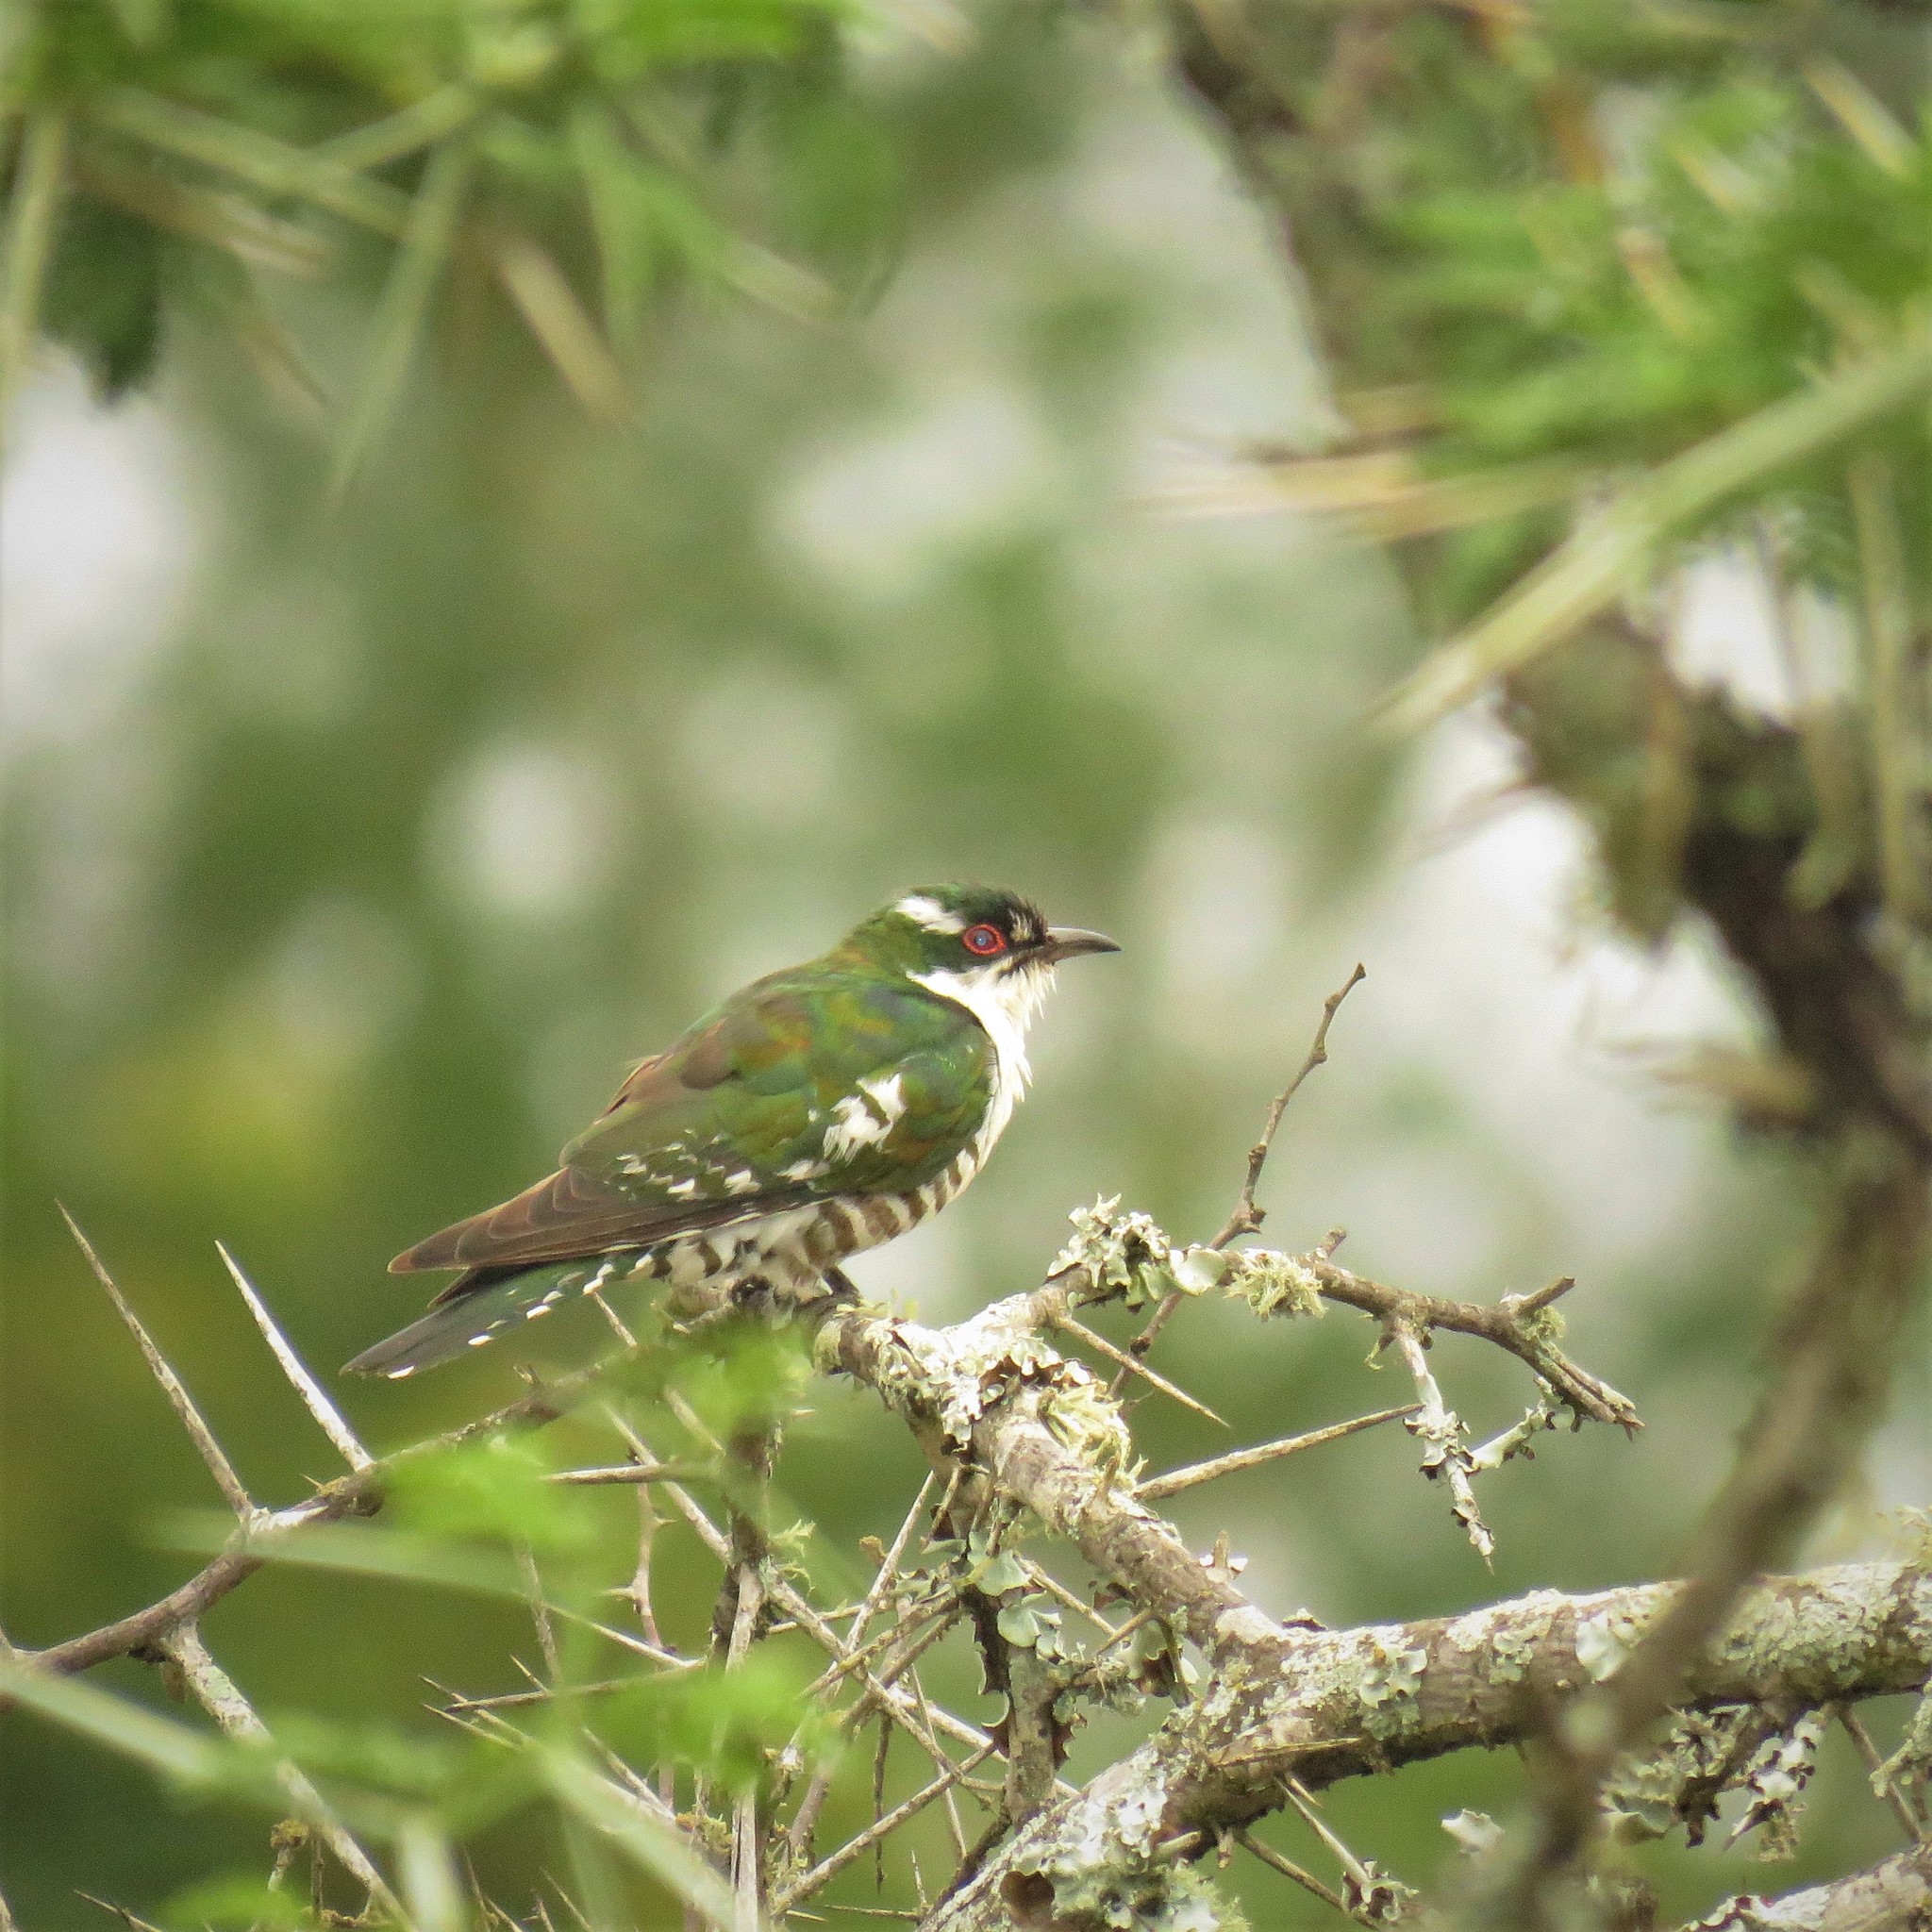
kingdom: Animalia
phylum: Chordata
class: Aves
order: Cuculiformes
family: Cuculidae
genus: Chrysococcyx
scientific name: Chrysococcyx caprius
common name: Diederik cuckoo
